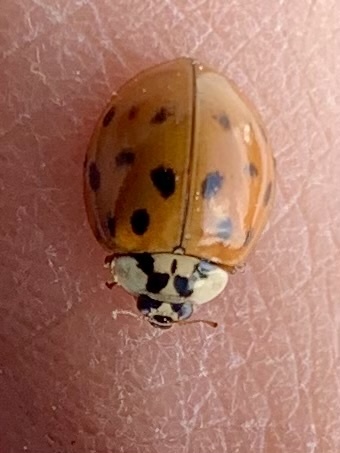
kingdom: Animalia
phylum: Arthropoda
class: Insecta
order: Coleoptera
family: Coccinellidae
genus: Harmonia
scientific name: Harmonia axyridis
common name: Harlequin ladybird
